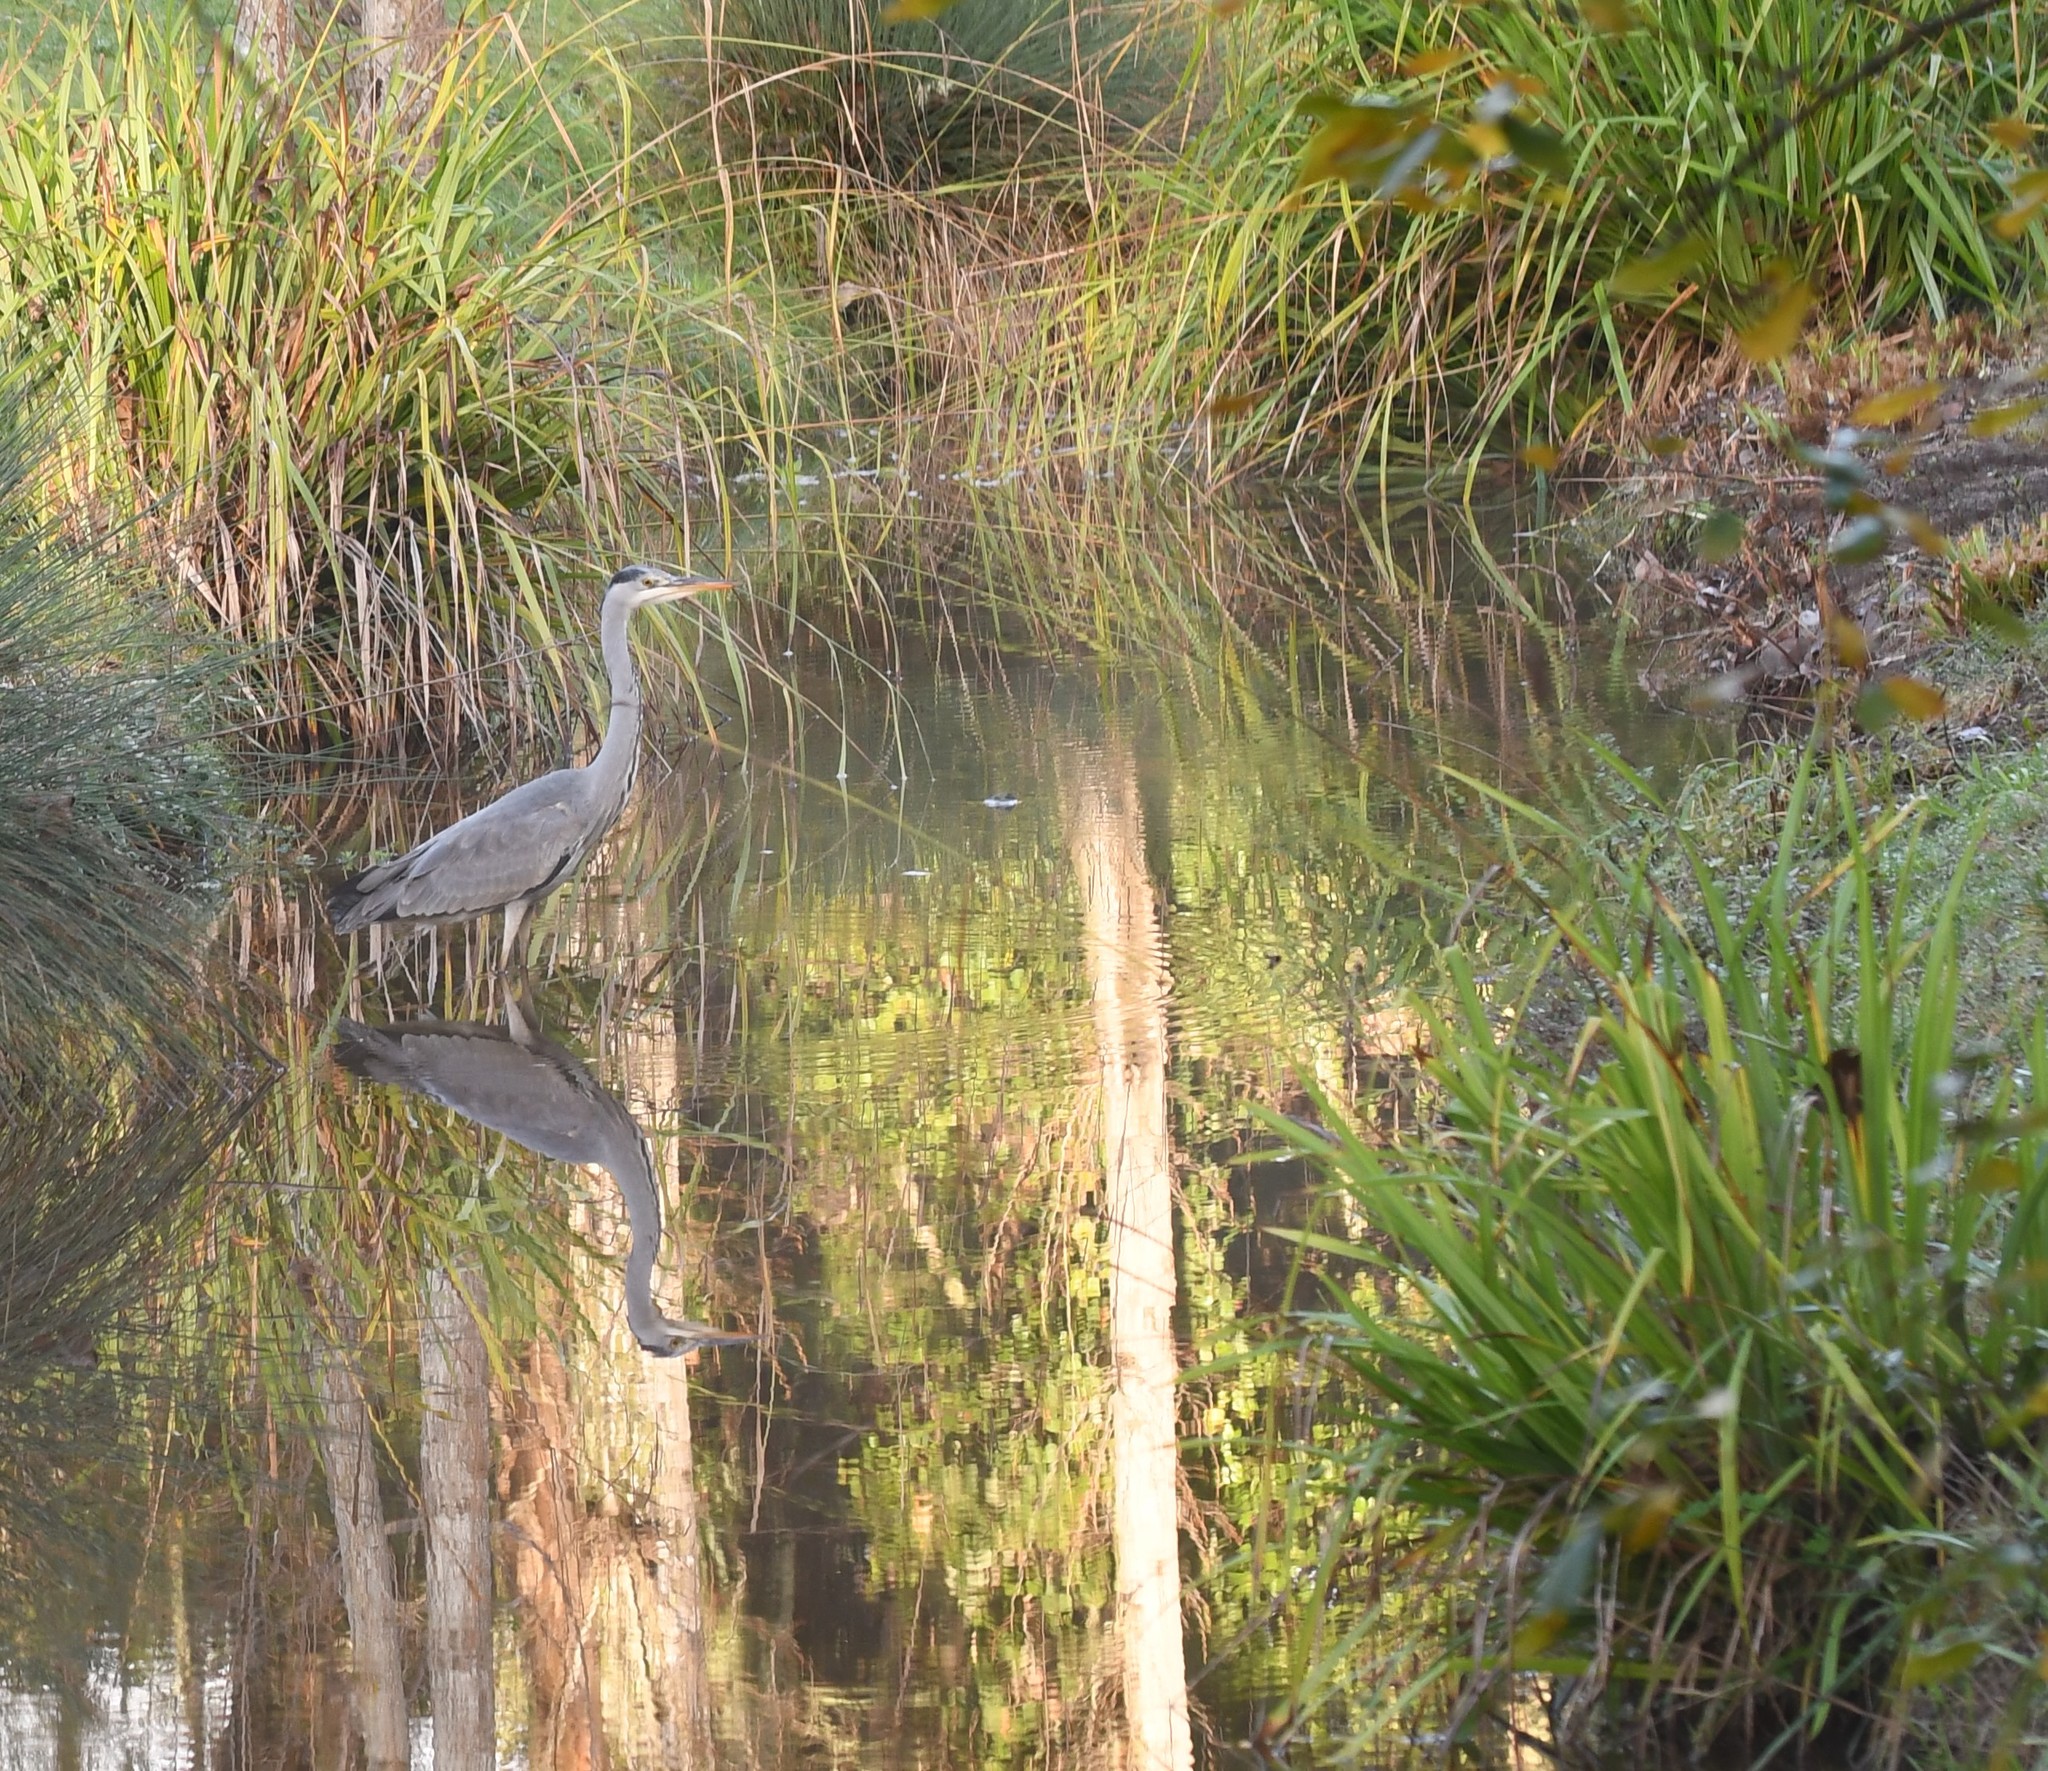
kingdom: Animalia
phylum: Chordata
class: Aves
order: Pelecaniformes
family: Ardeidae
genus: Ardea
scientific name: Ardea cinerea
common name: Grey heron
